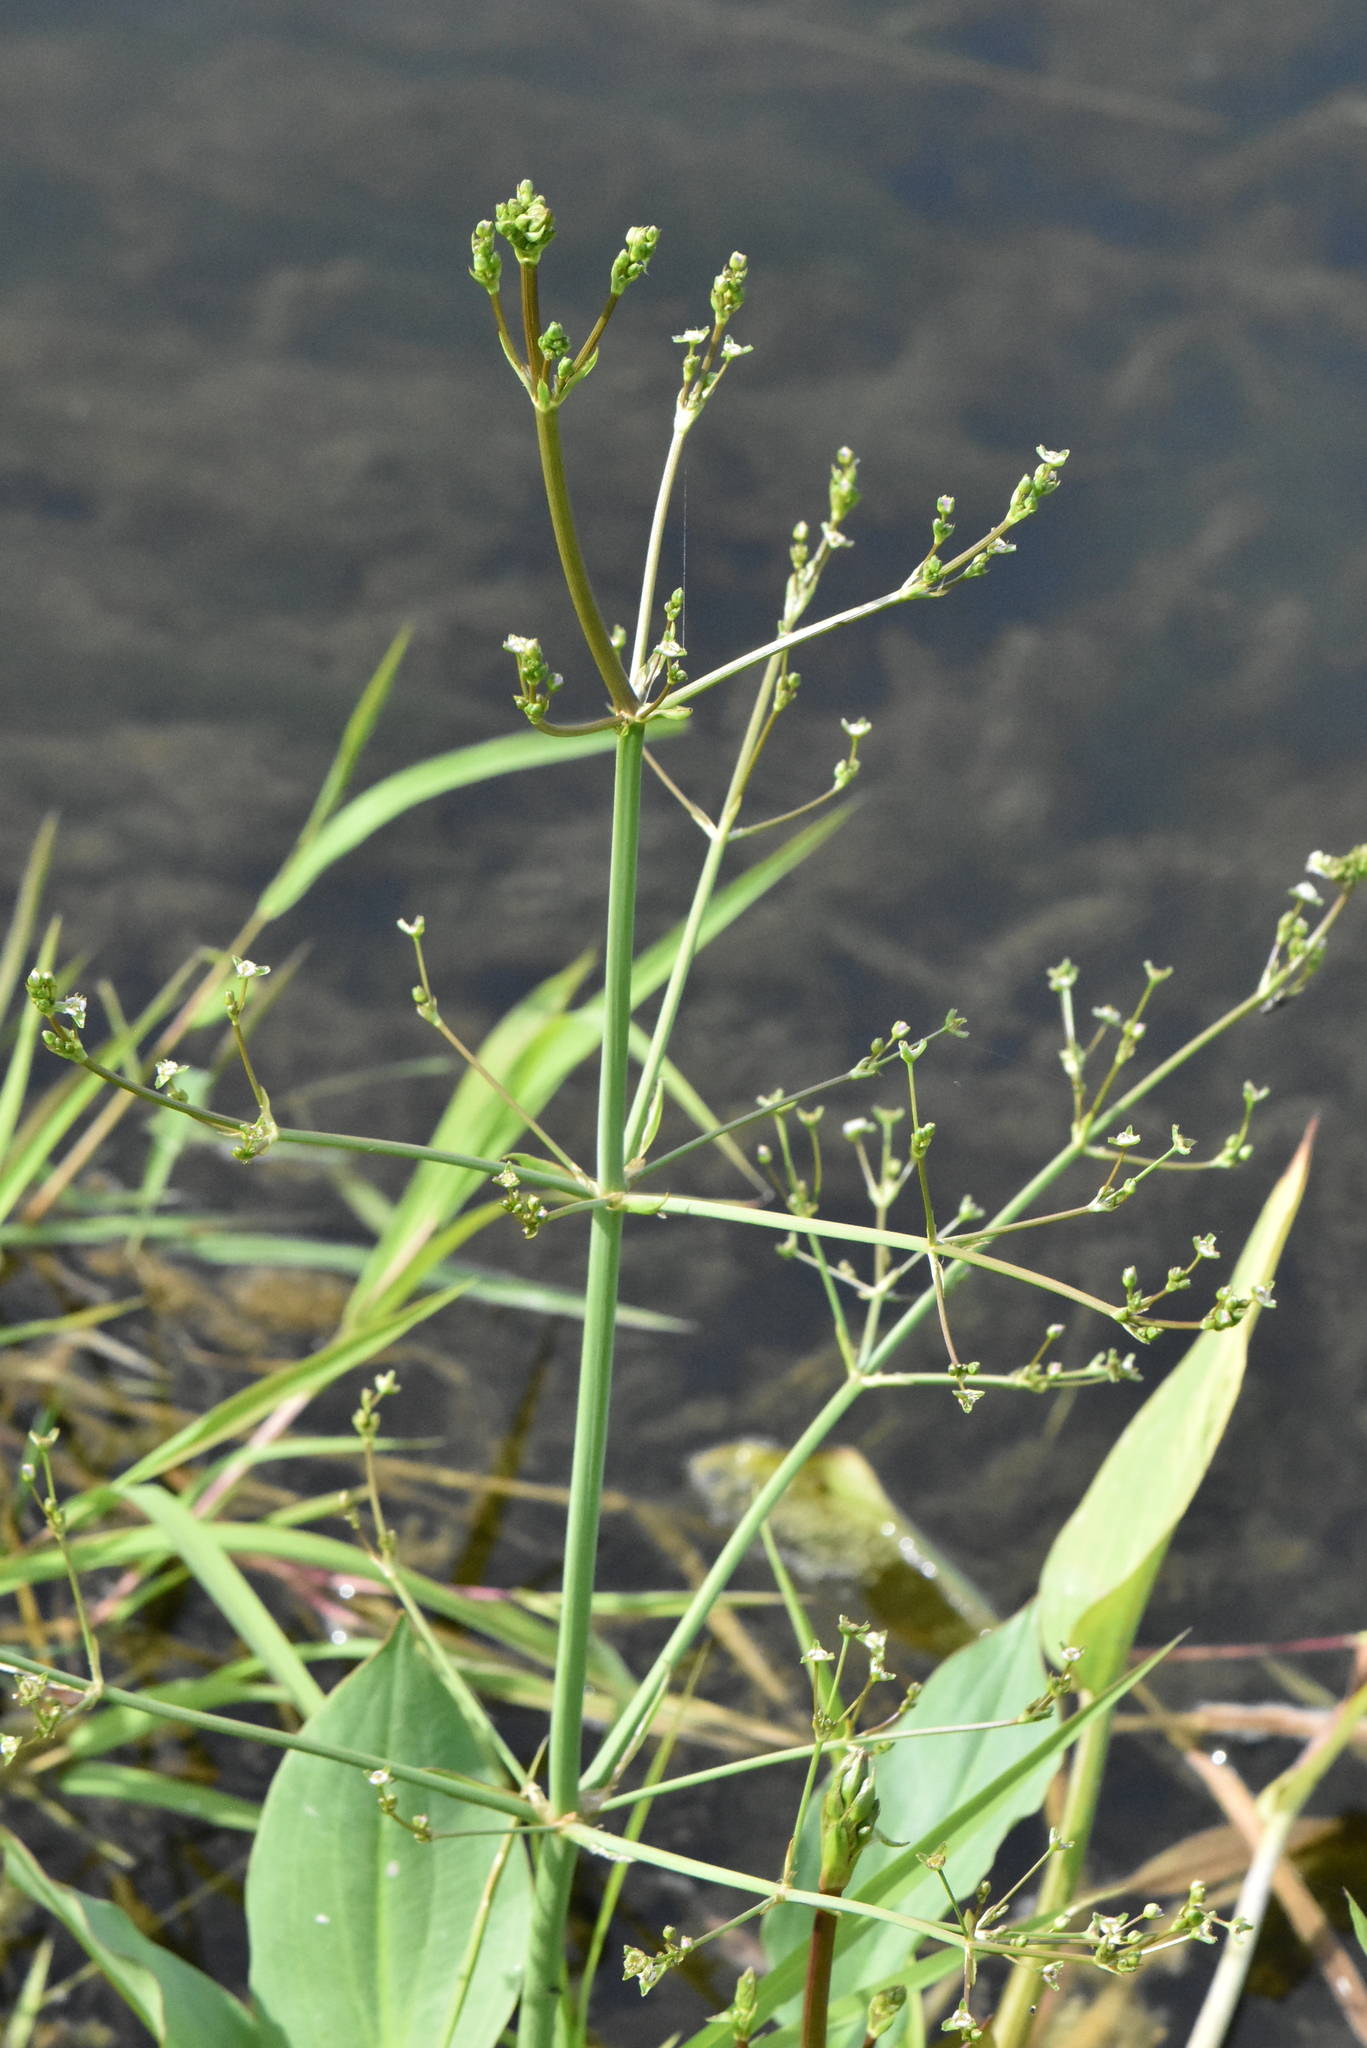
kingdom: Plantae
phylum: Tracheophyta
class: Liliopsida
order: Alismatales
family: Alismataceae
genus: Alisma
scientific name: Alisma plantago-aquatica
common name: Water-plantain
